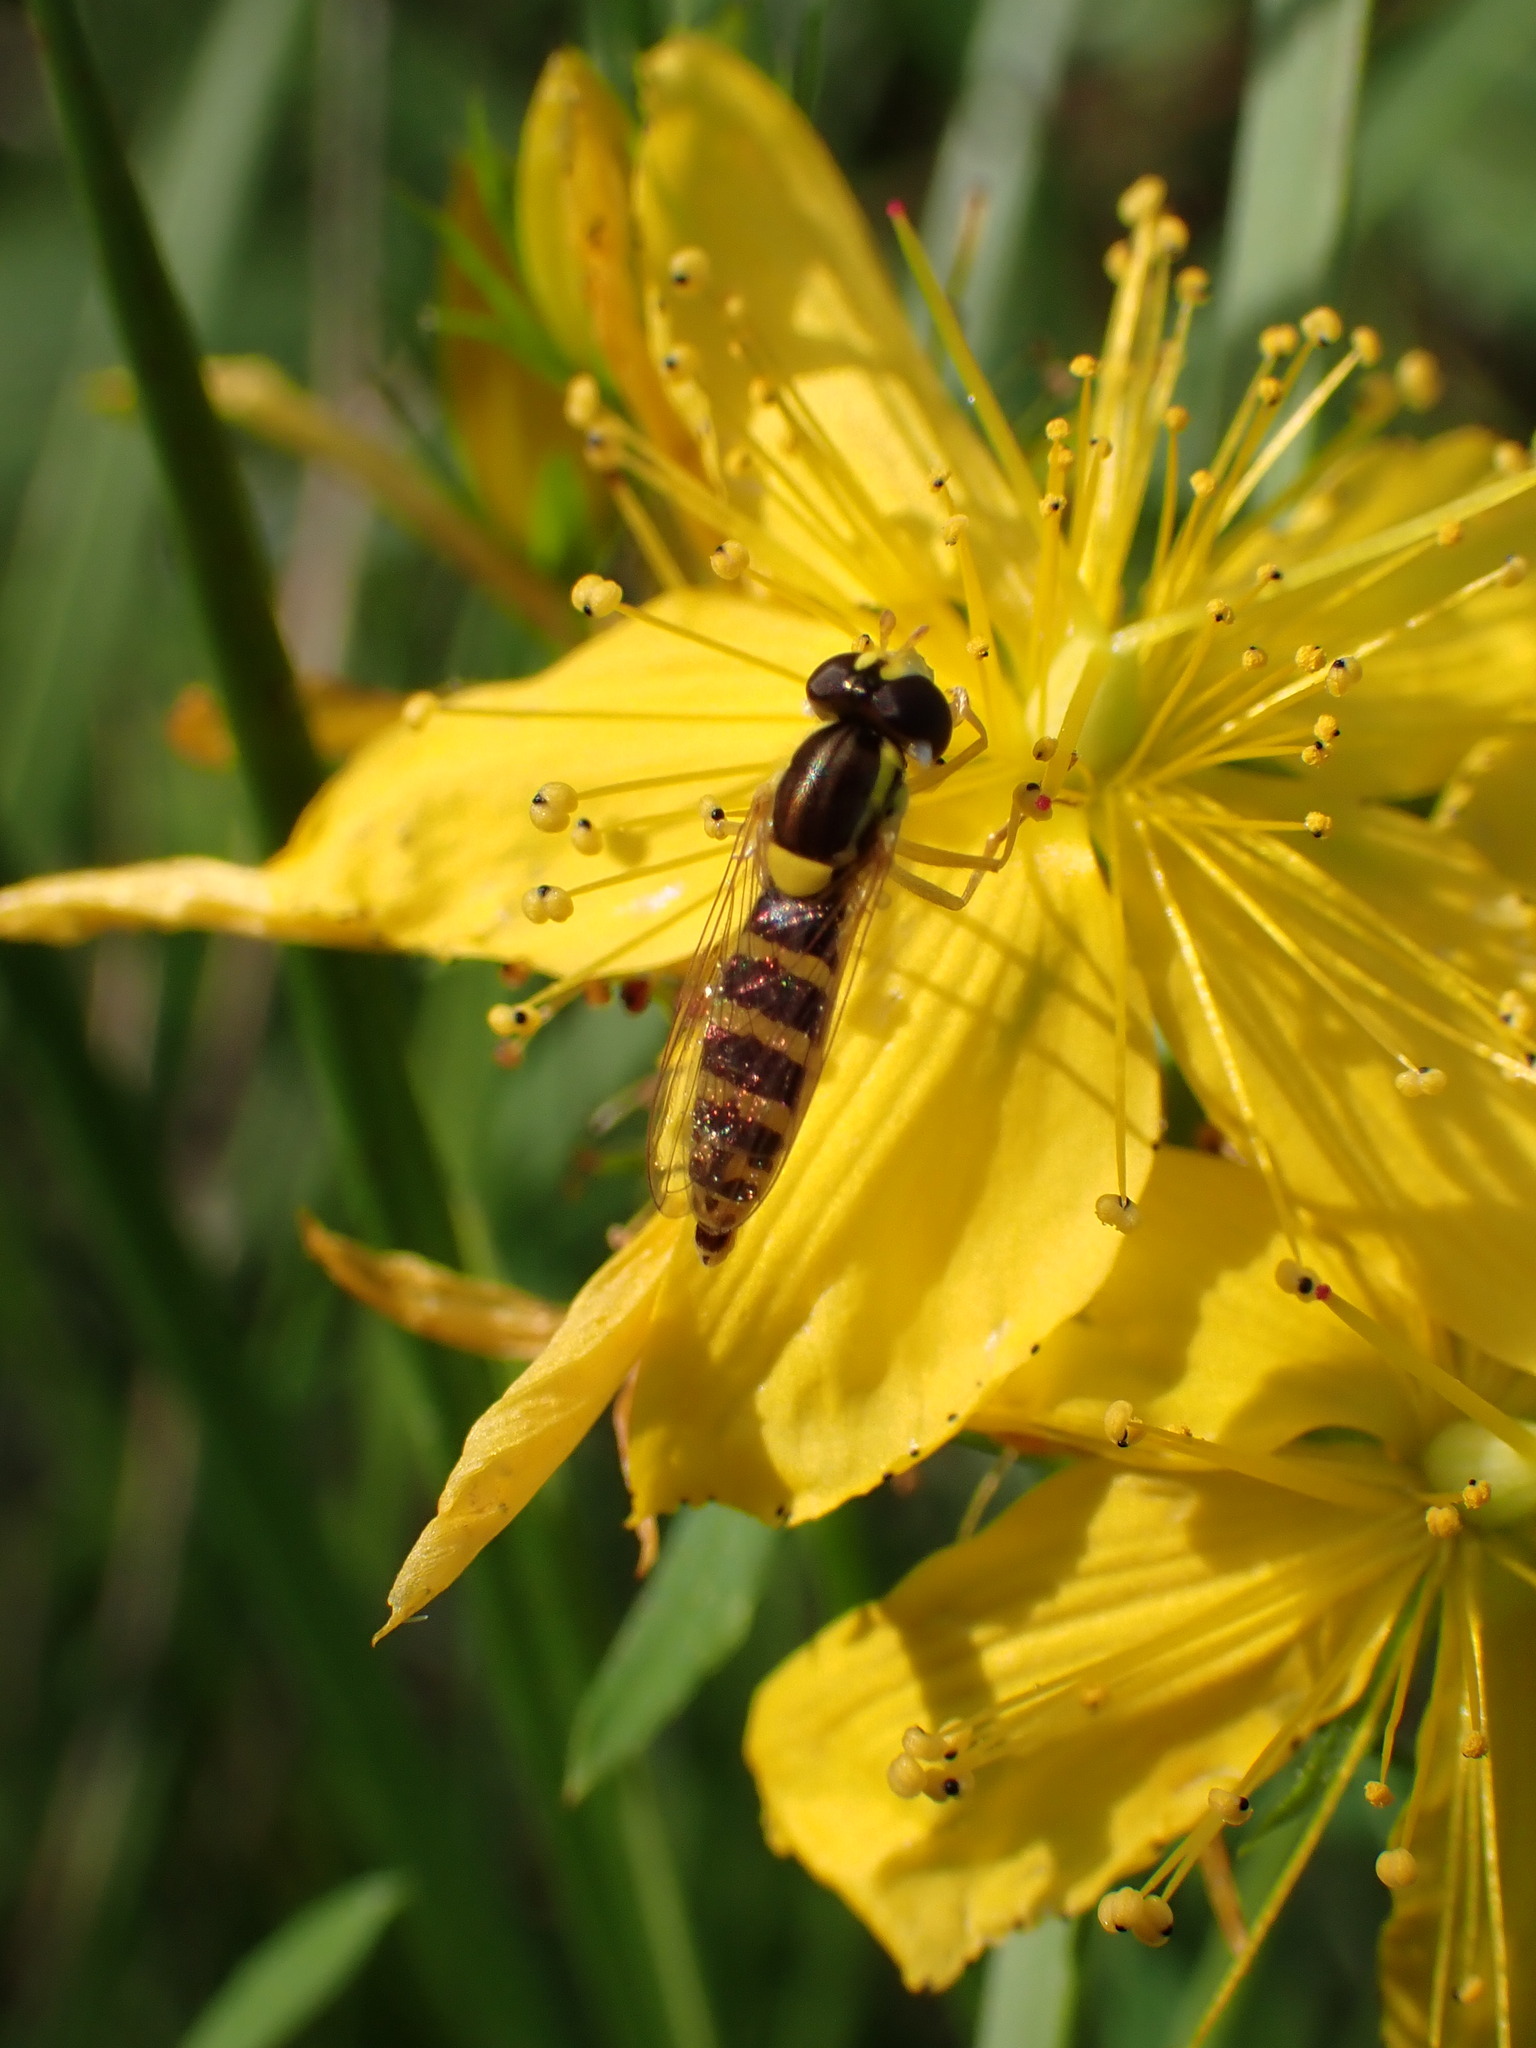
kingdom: Animalia
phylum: Arthropoda
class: Insecta
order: Diptera
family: Syrphidae
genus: Sphaerophoria
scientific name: Sphaerophoria
